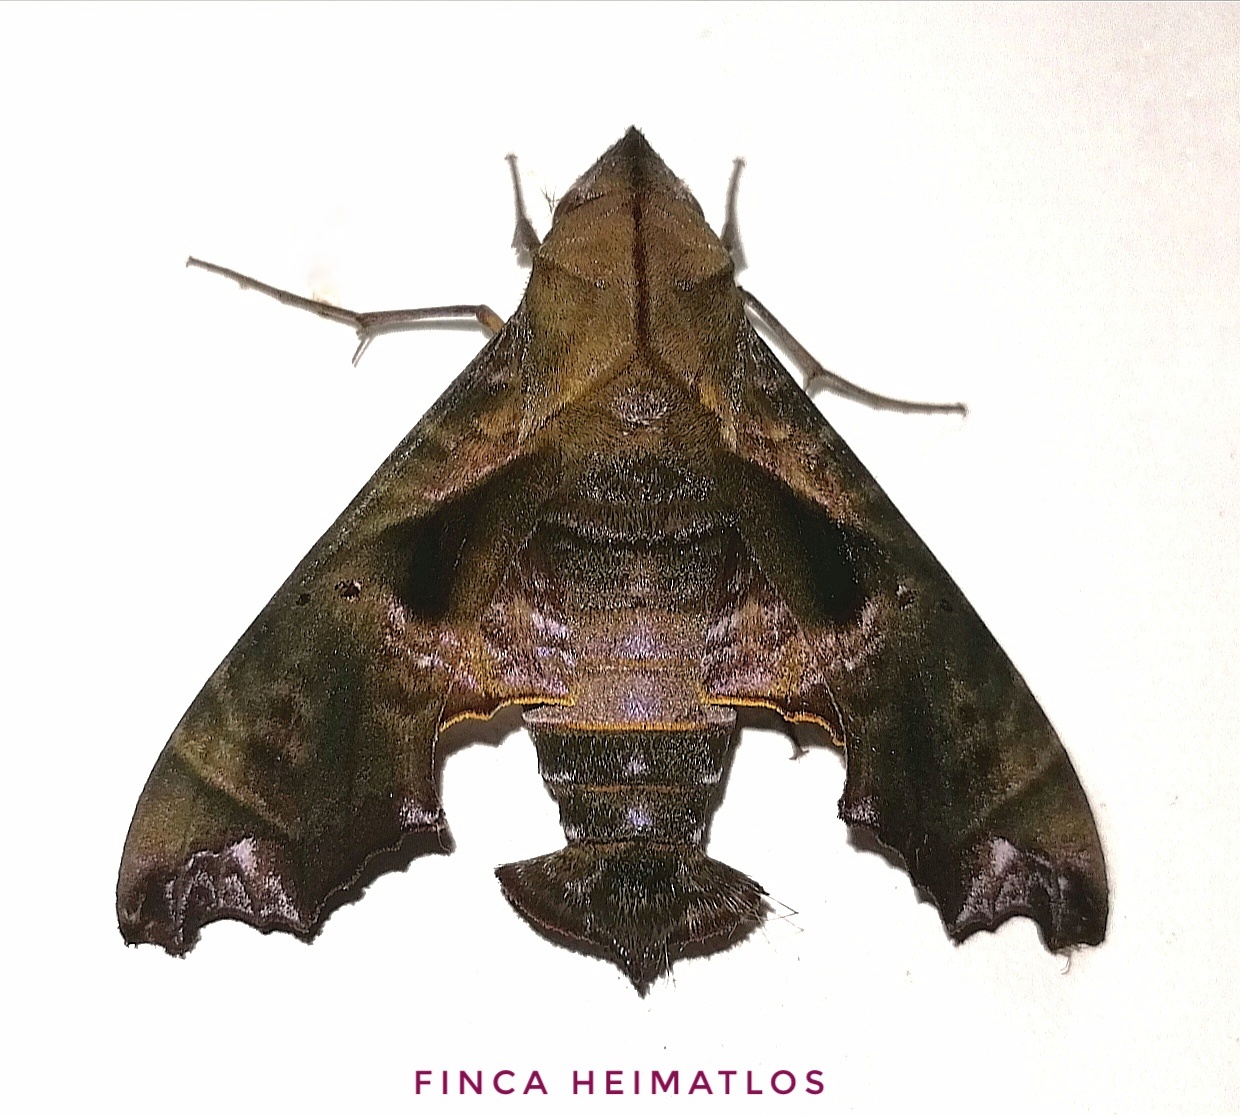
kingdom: Animalia
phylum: Arthropoda
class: Insecta
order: Lepidoptera
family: Sphingidae
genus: Nyceryx
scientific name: Nyceryx tacita
